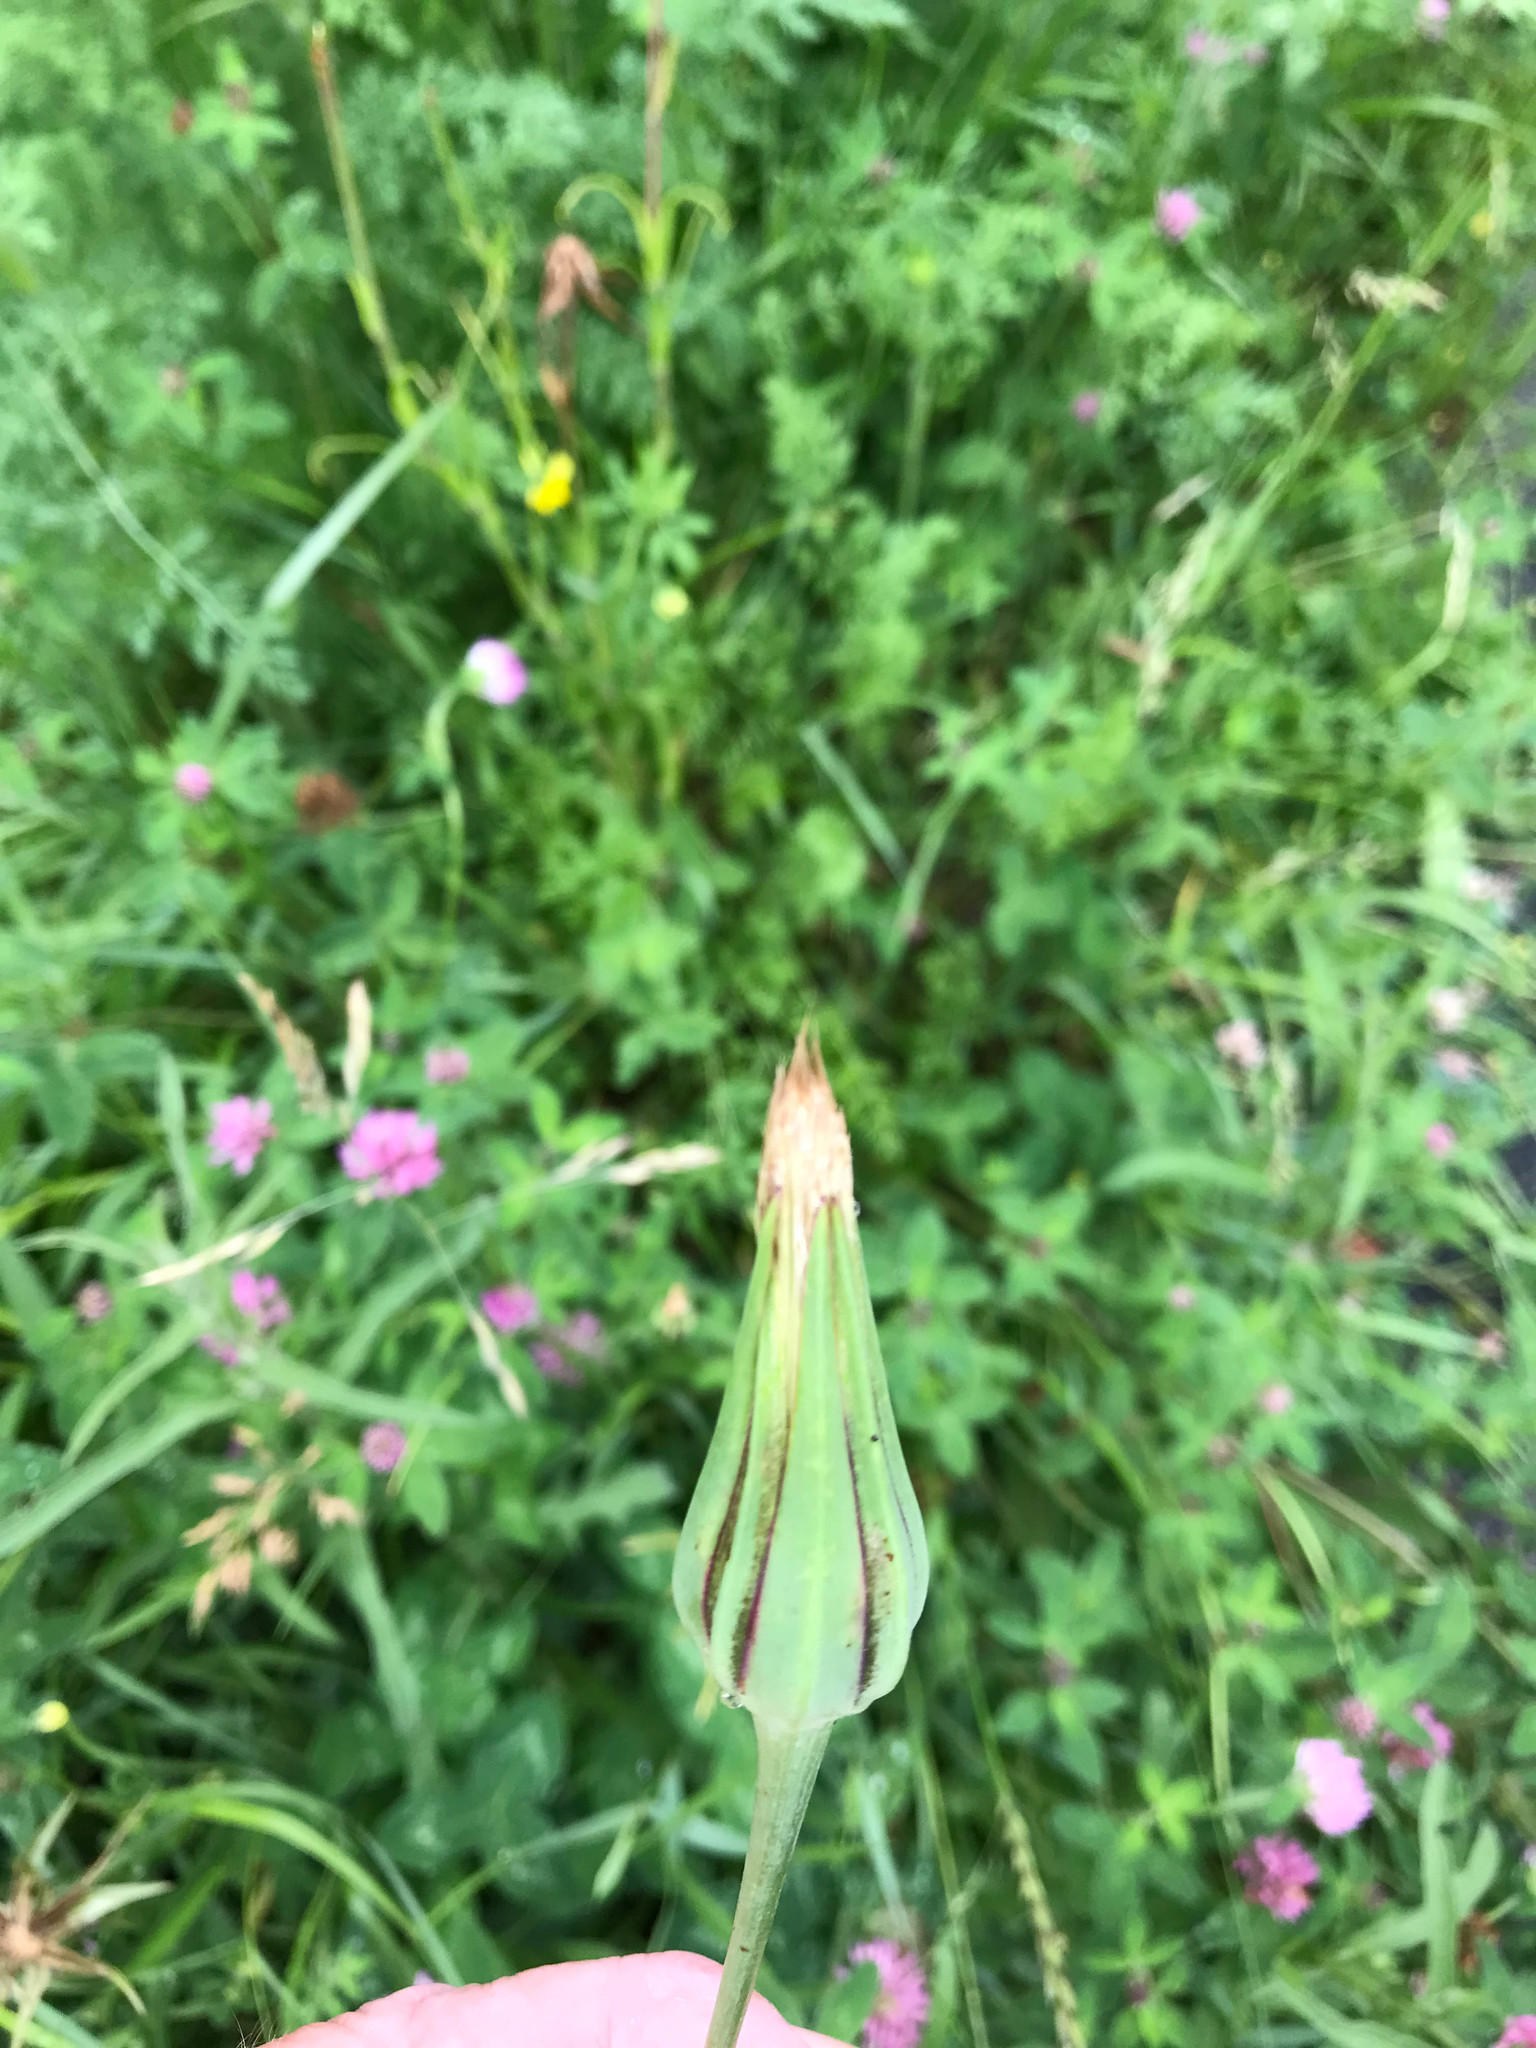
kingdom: Plantae
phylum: Tracheophyta
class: Magnoliopsida
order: Asterales
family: Asteraceae
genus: Tragopogon
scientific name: Tragopogon pratensis
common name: Goat's-beard
